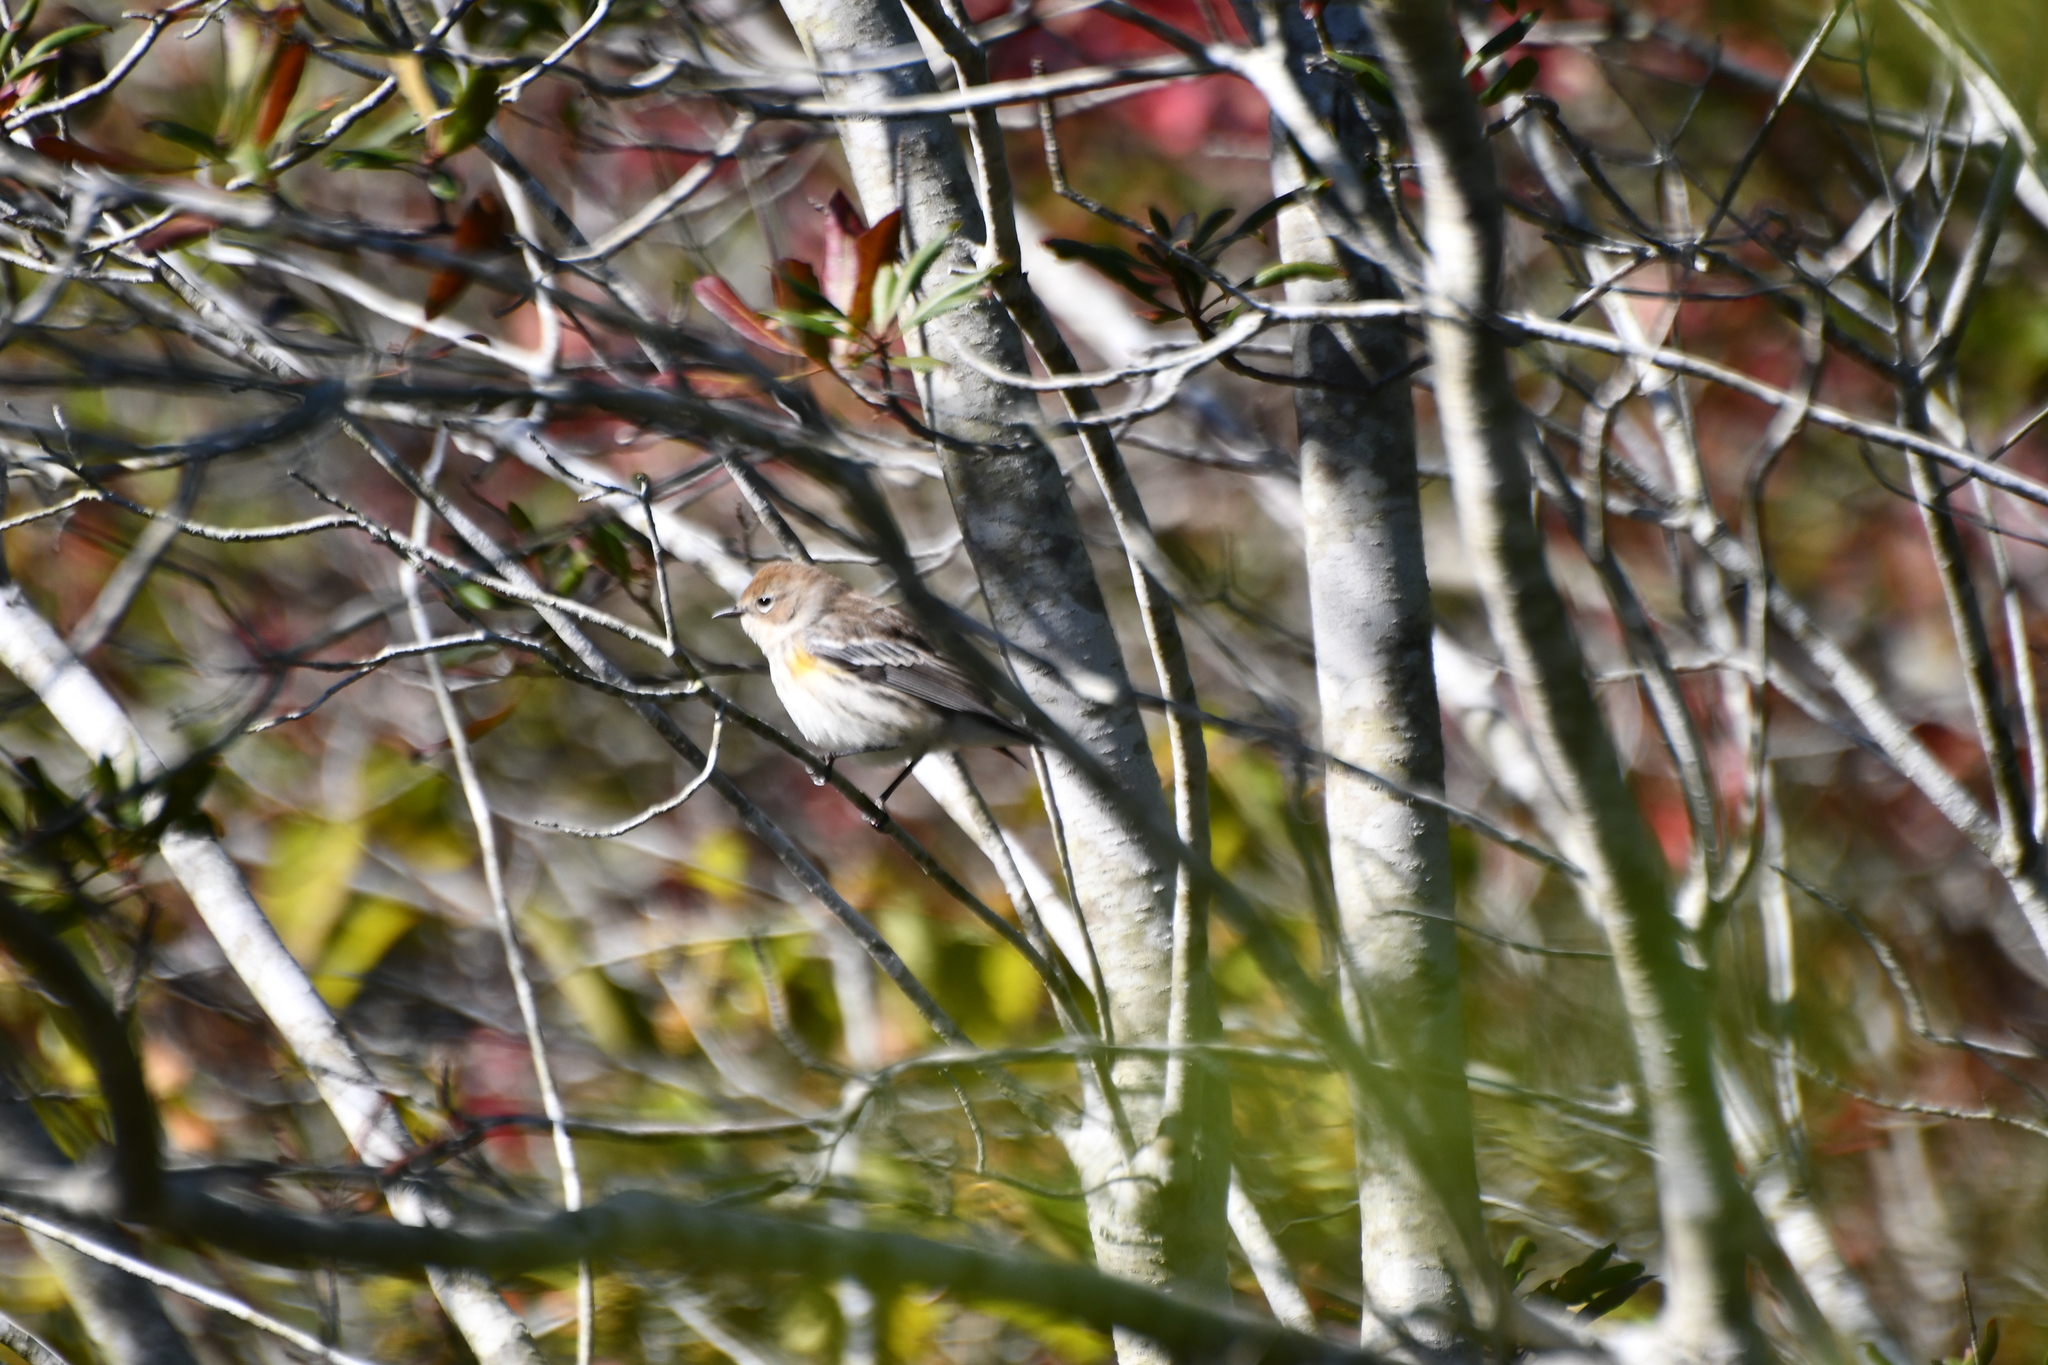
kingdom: Animalia
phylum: Chordata
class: Aves
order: Passeriformes
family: Parulidae
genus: Setophaga
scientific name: Setophaga coronata
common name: Myrtle warbler
